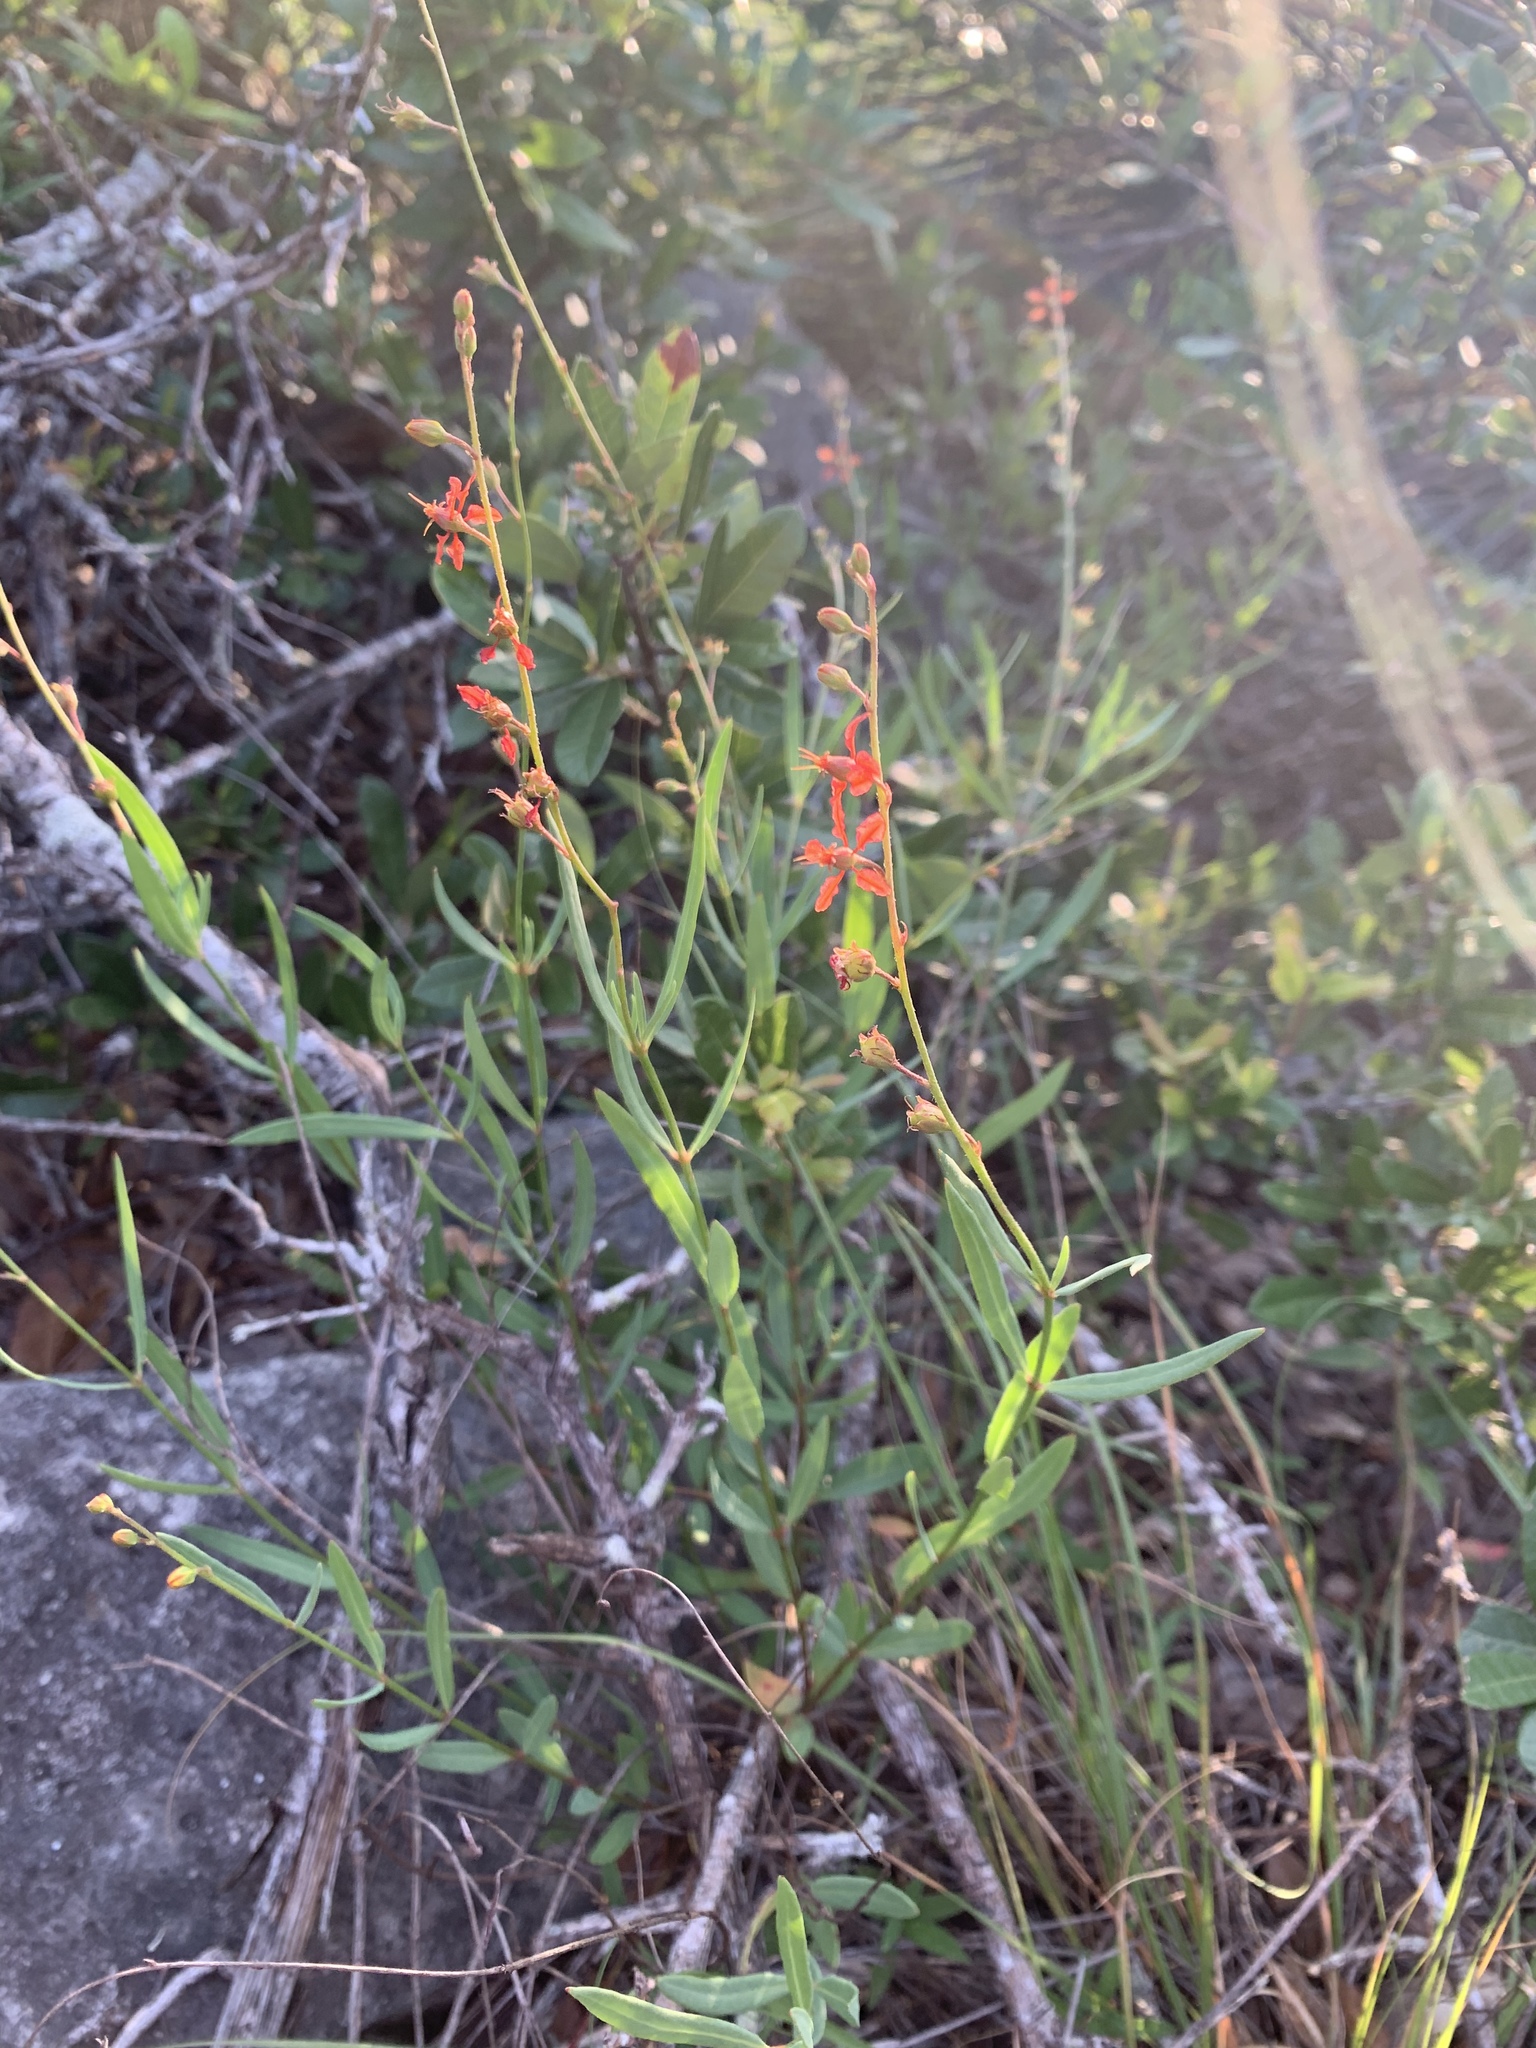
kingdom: Plantae
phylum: Tracheophyta
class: Magnoliopsida
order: Malpighiales
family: Malpighiaceae
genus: Galphimia
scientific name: Galphimia angustifolia
